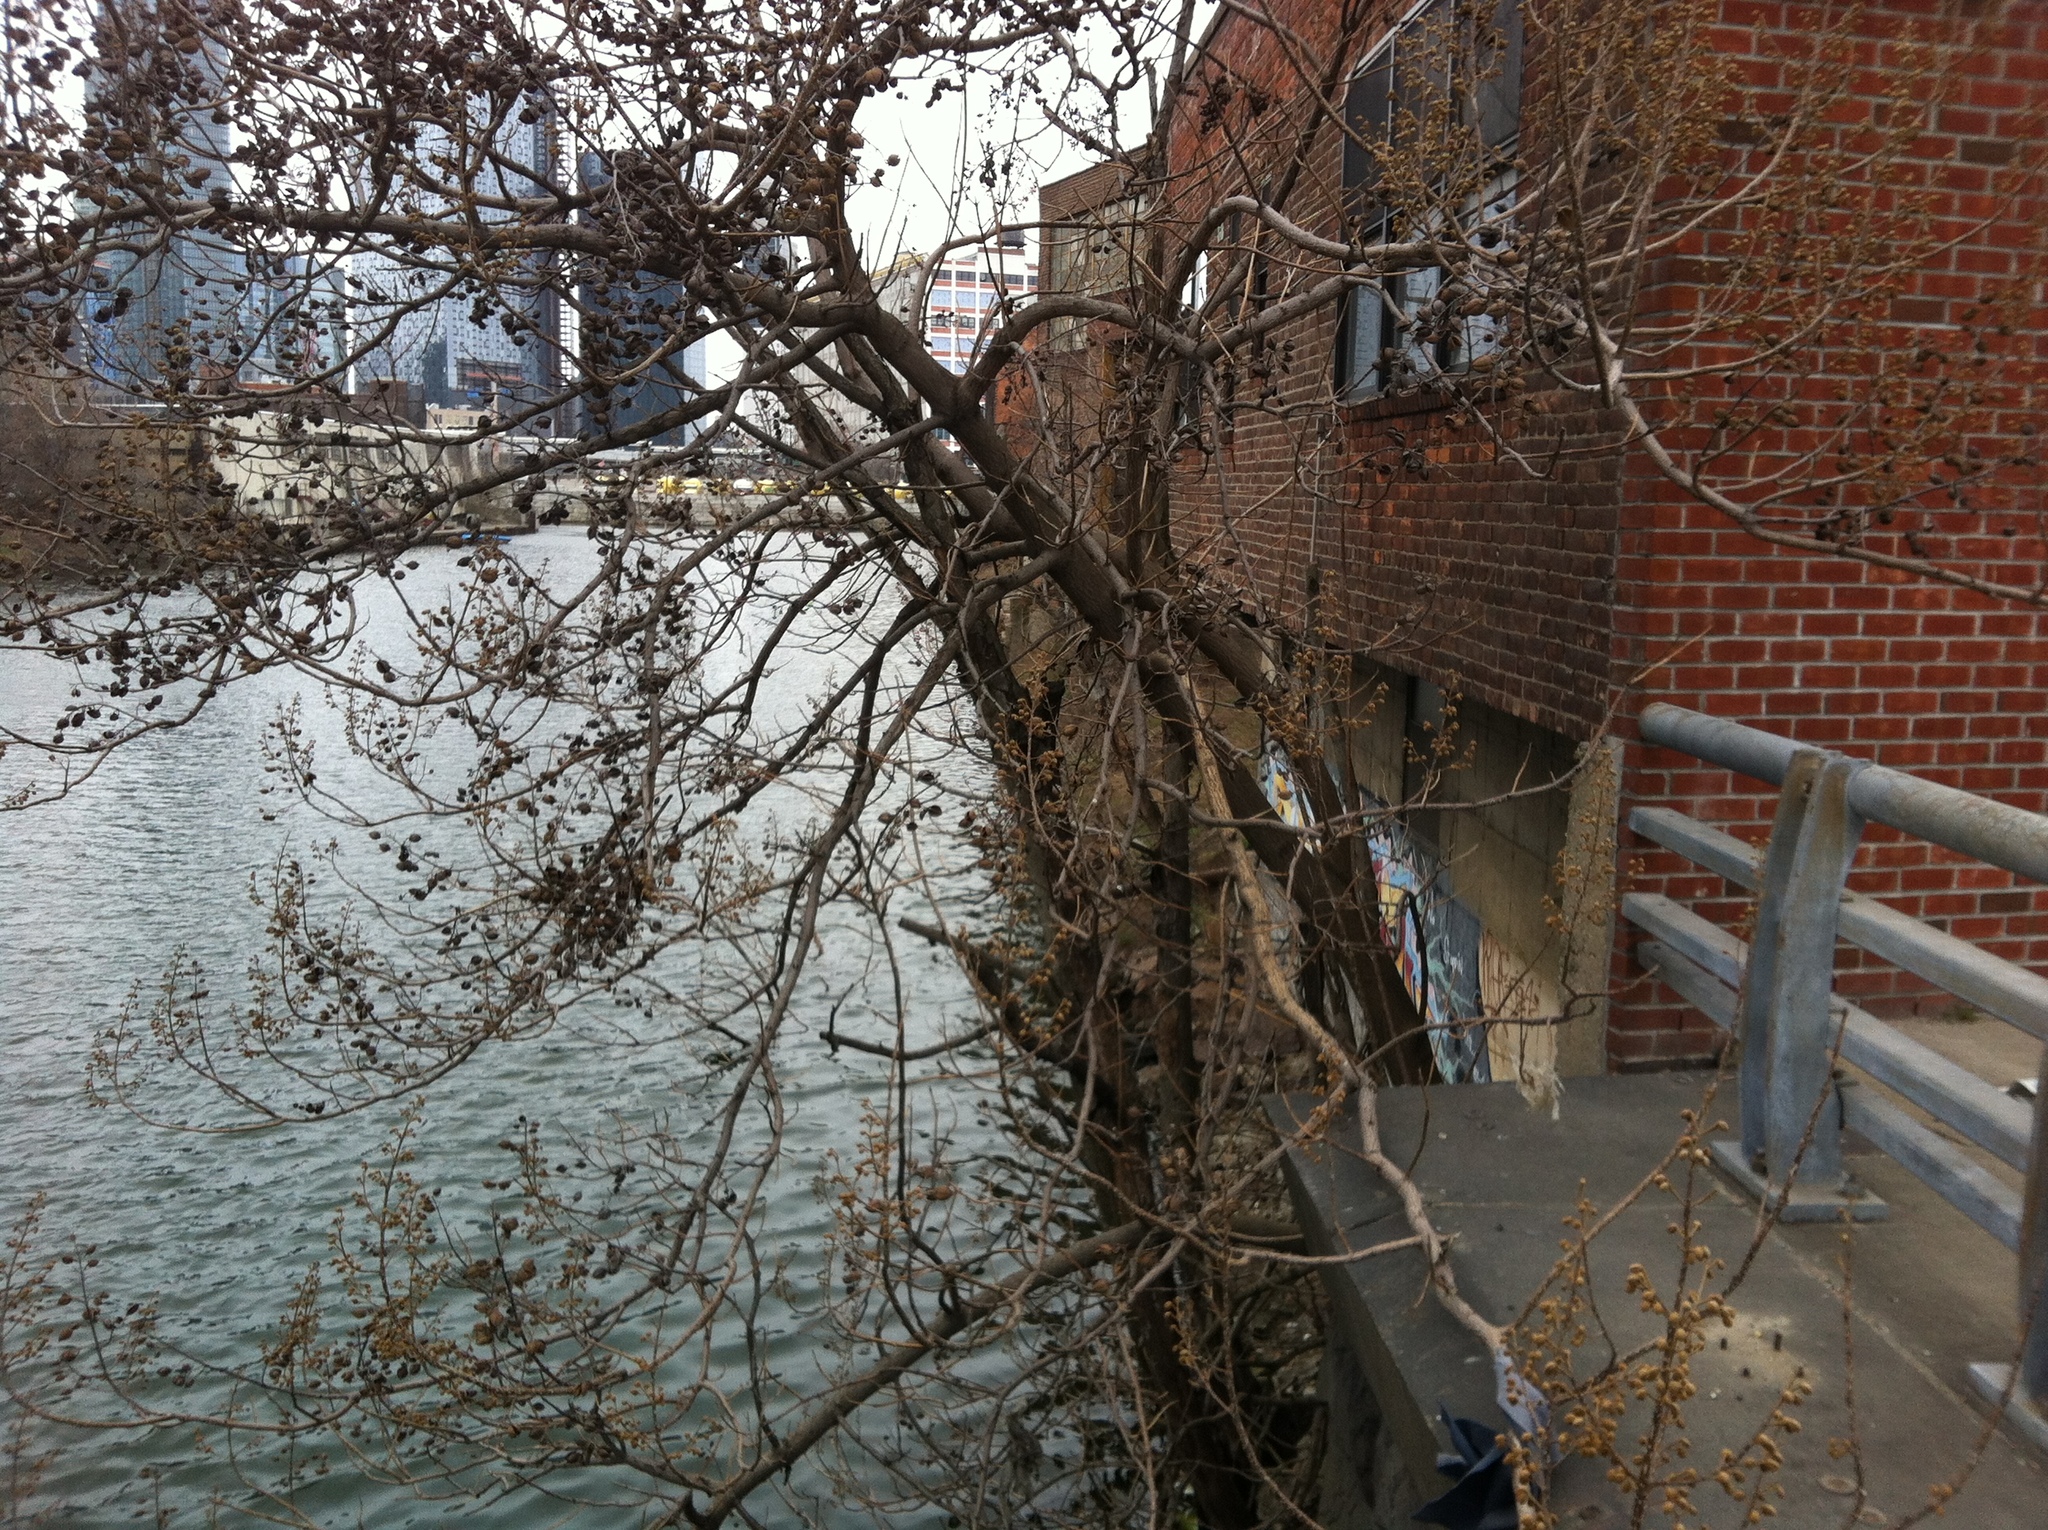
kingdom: Plantae
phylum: Tracheophyta
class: Magnoliopsida
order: Lamiales
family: Paulowniaceae
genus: Paulownia
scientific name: Paulownia tomentosa
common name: Foxglove-tree
